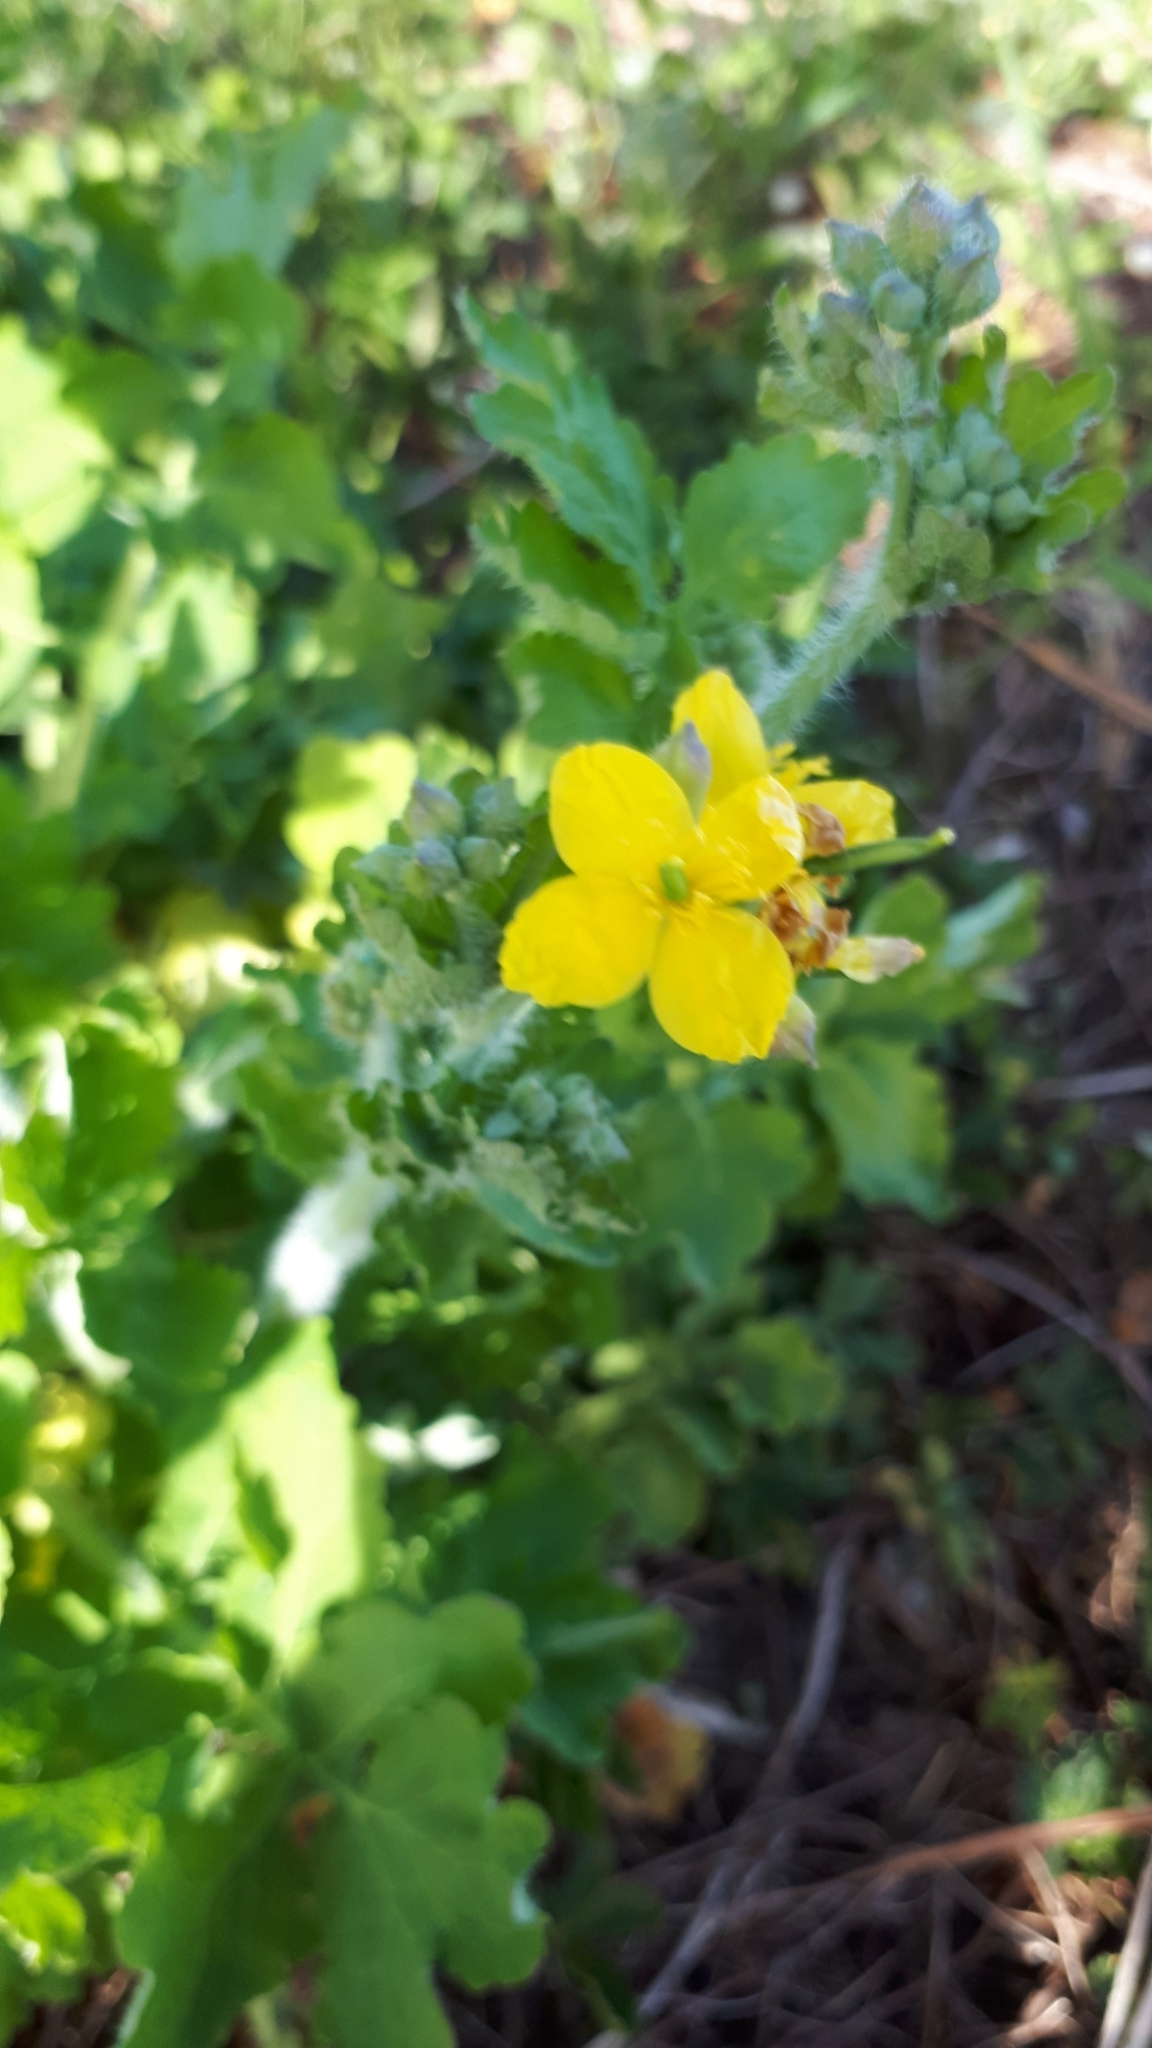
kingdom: Plantae
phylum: Tracheophyta
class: Magnoliopsida
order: Ranunculales
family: Papaveraceae
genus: Chelidonium
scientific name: Chelidonium majus
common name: Greater celandine
